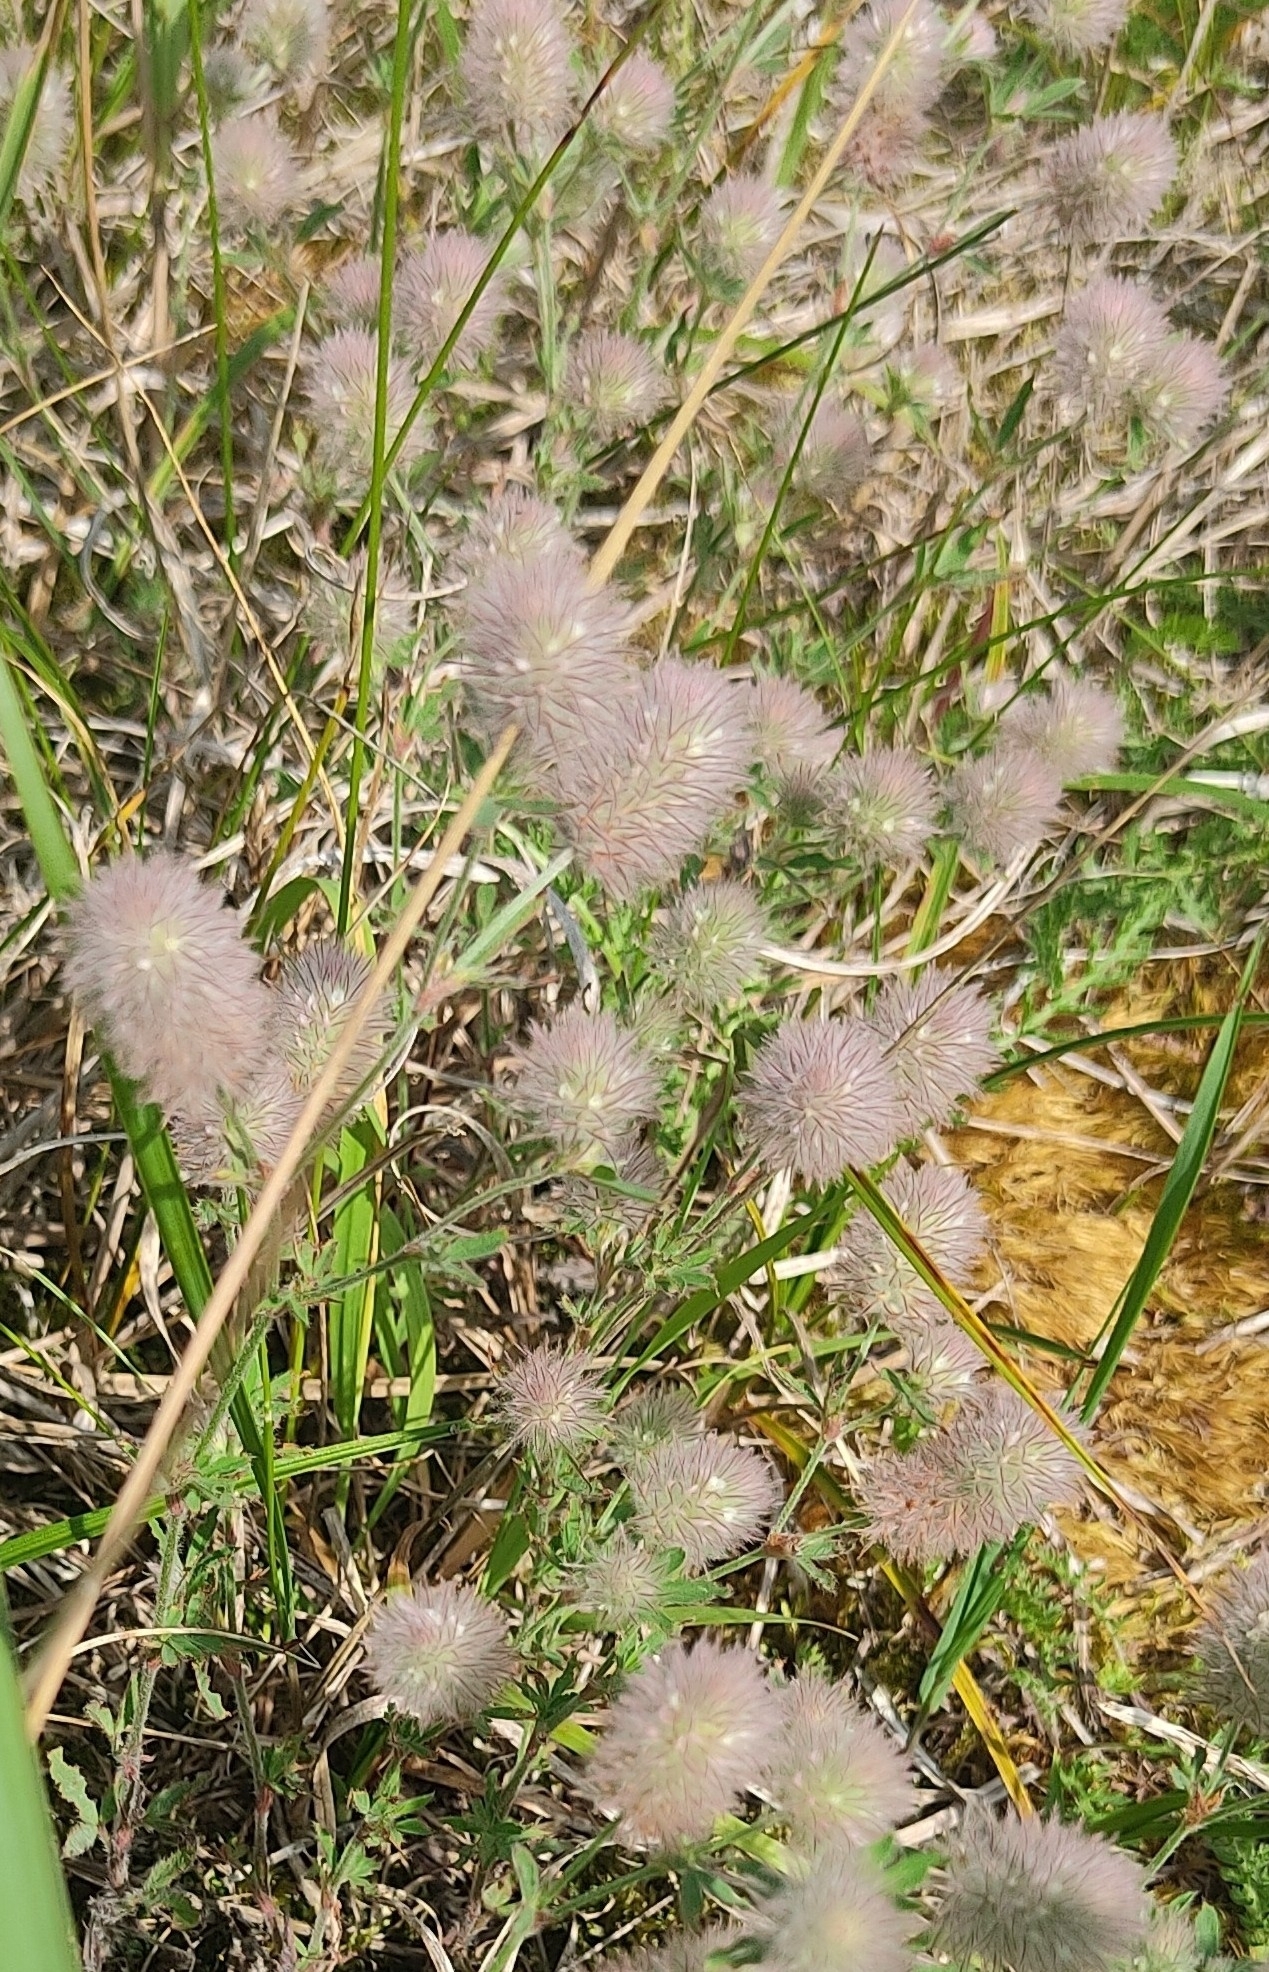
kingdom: Plantae
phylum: Tracheophyta
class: Magnoliopsida
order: Fabales
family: Fabaceae
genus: Trifolium
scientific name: Trifolium arvense
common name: Hare's-foot clover
